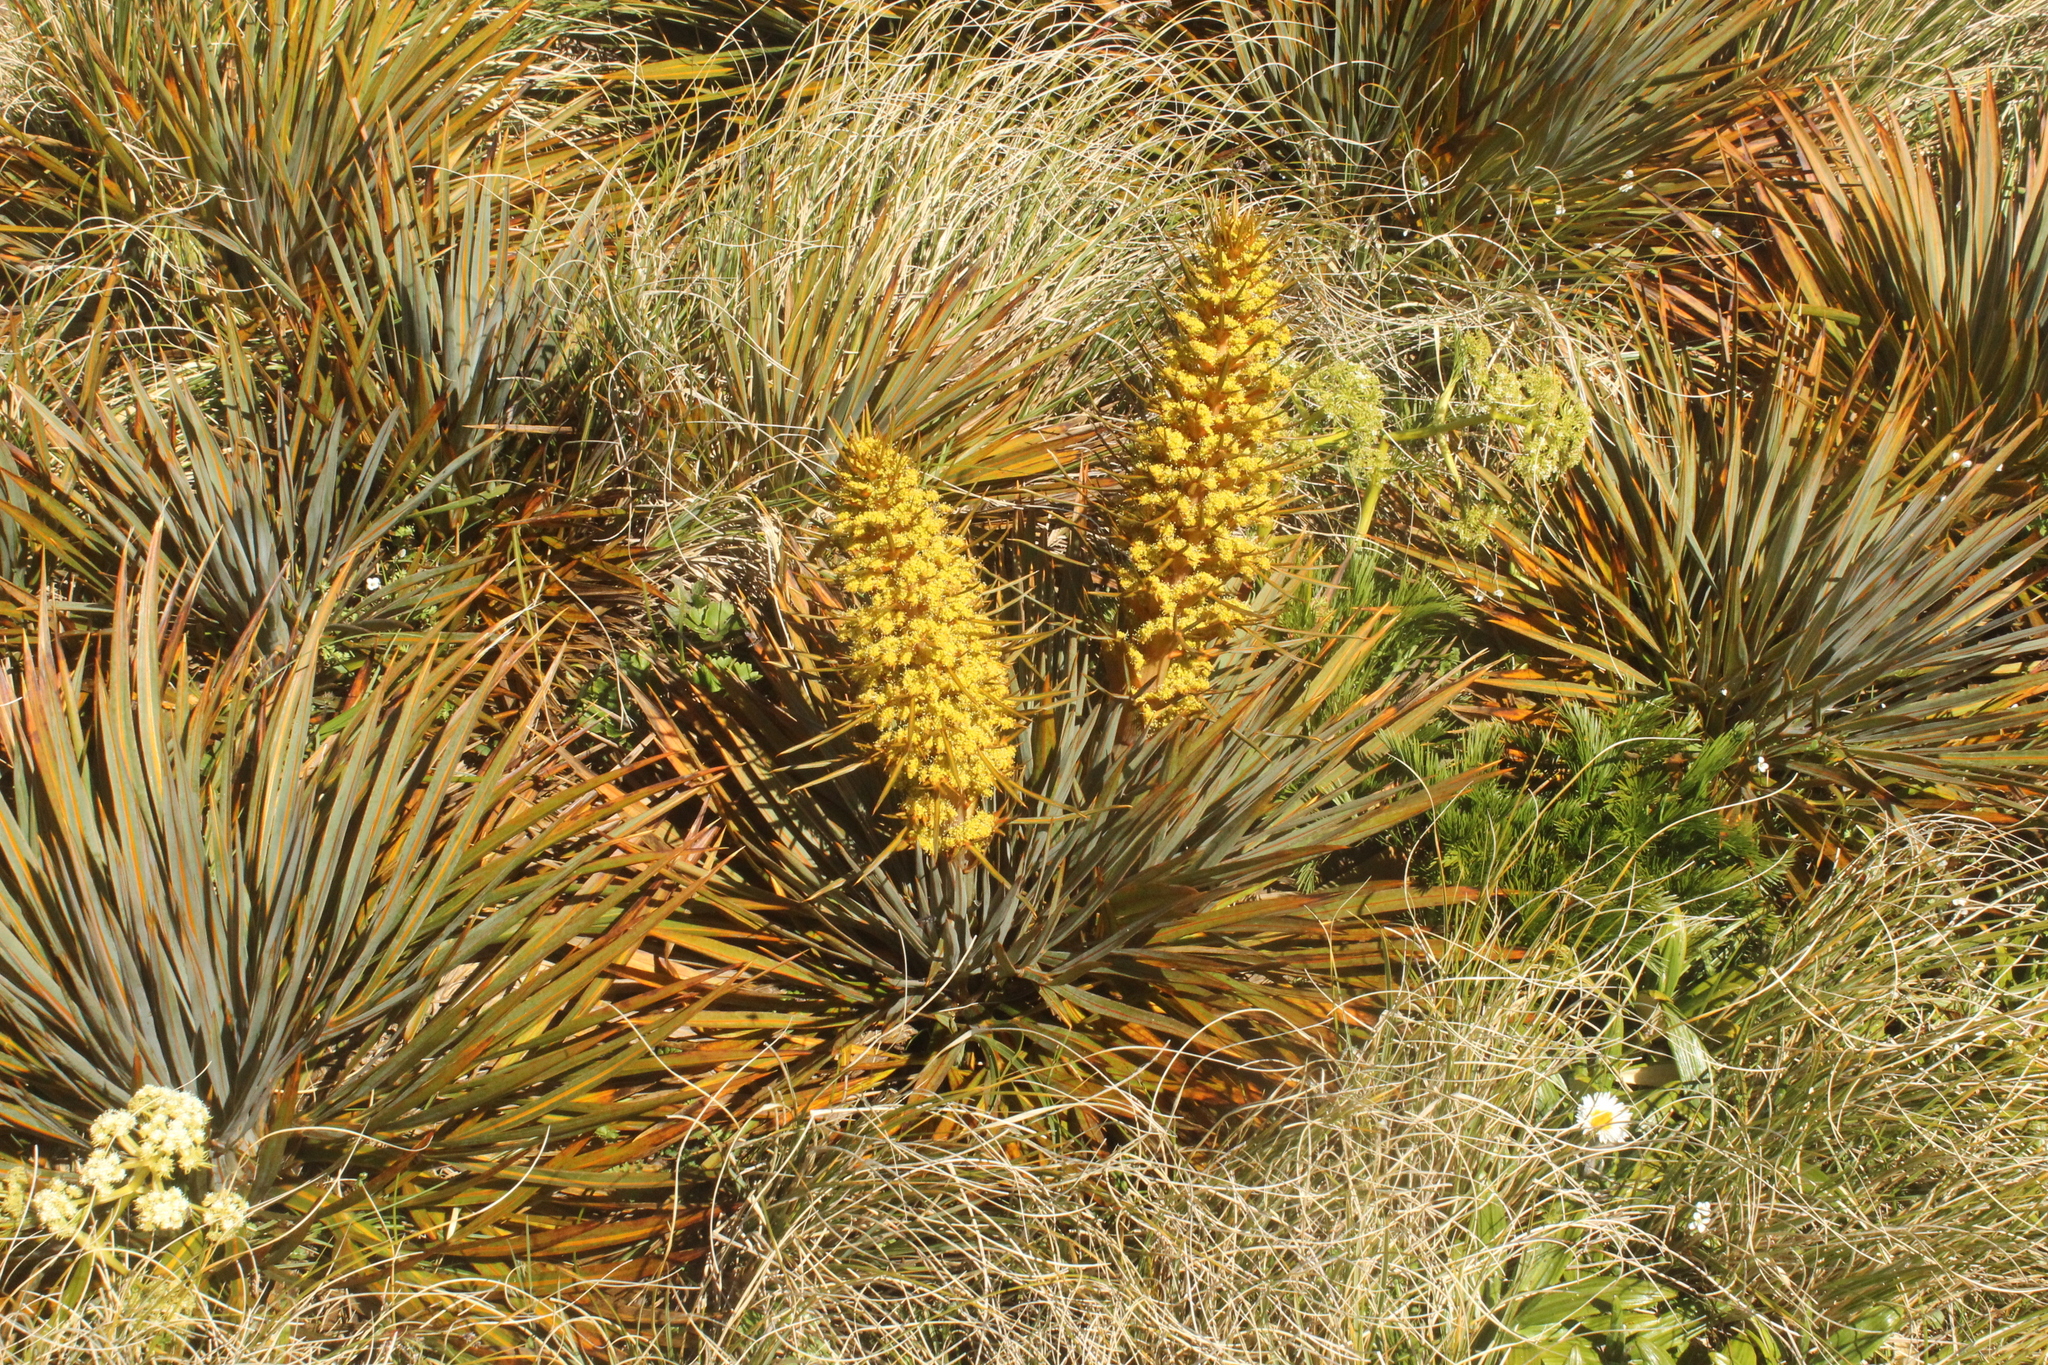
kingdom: Plantae
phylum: Tracheophyta
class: Magnoliopsida
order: Apiales
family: Apiaceae
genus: Aciphylla
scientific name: Aciphylla colensoi
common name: Colenso's spaniard
